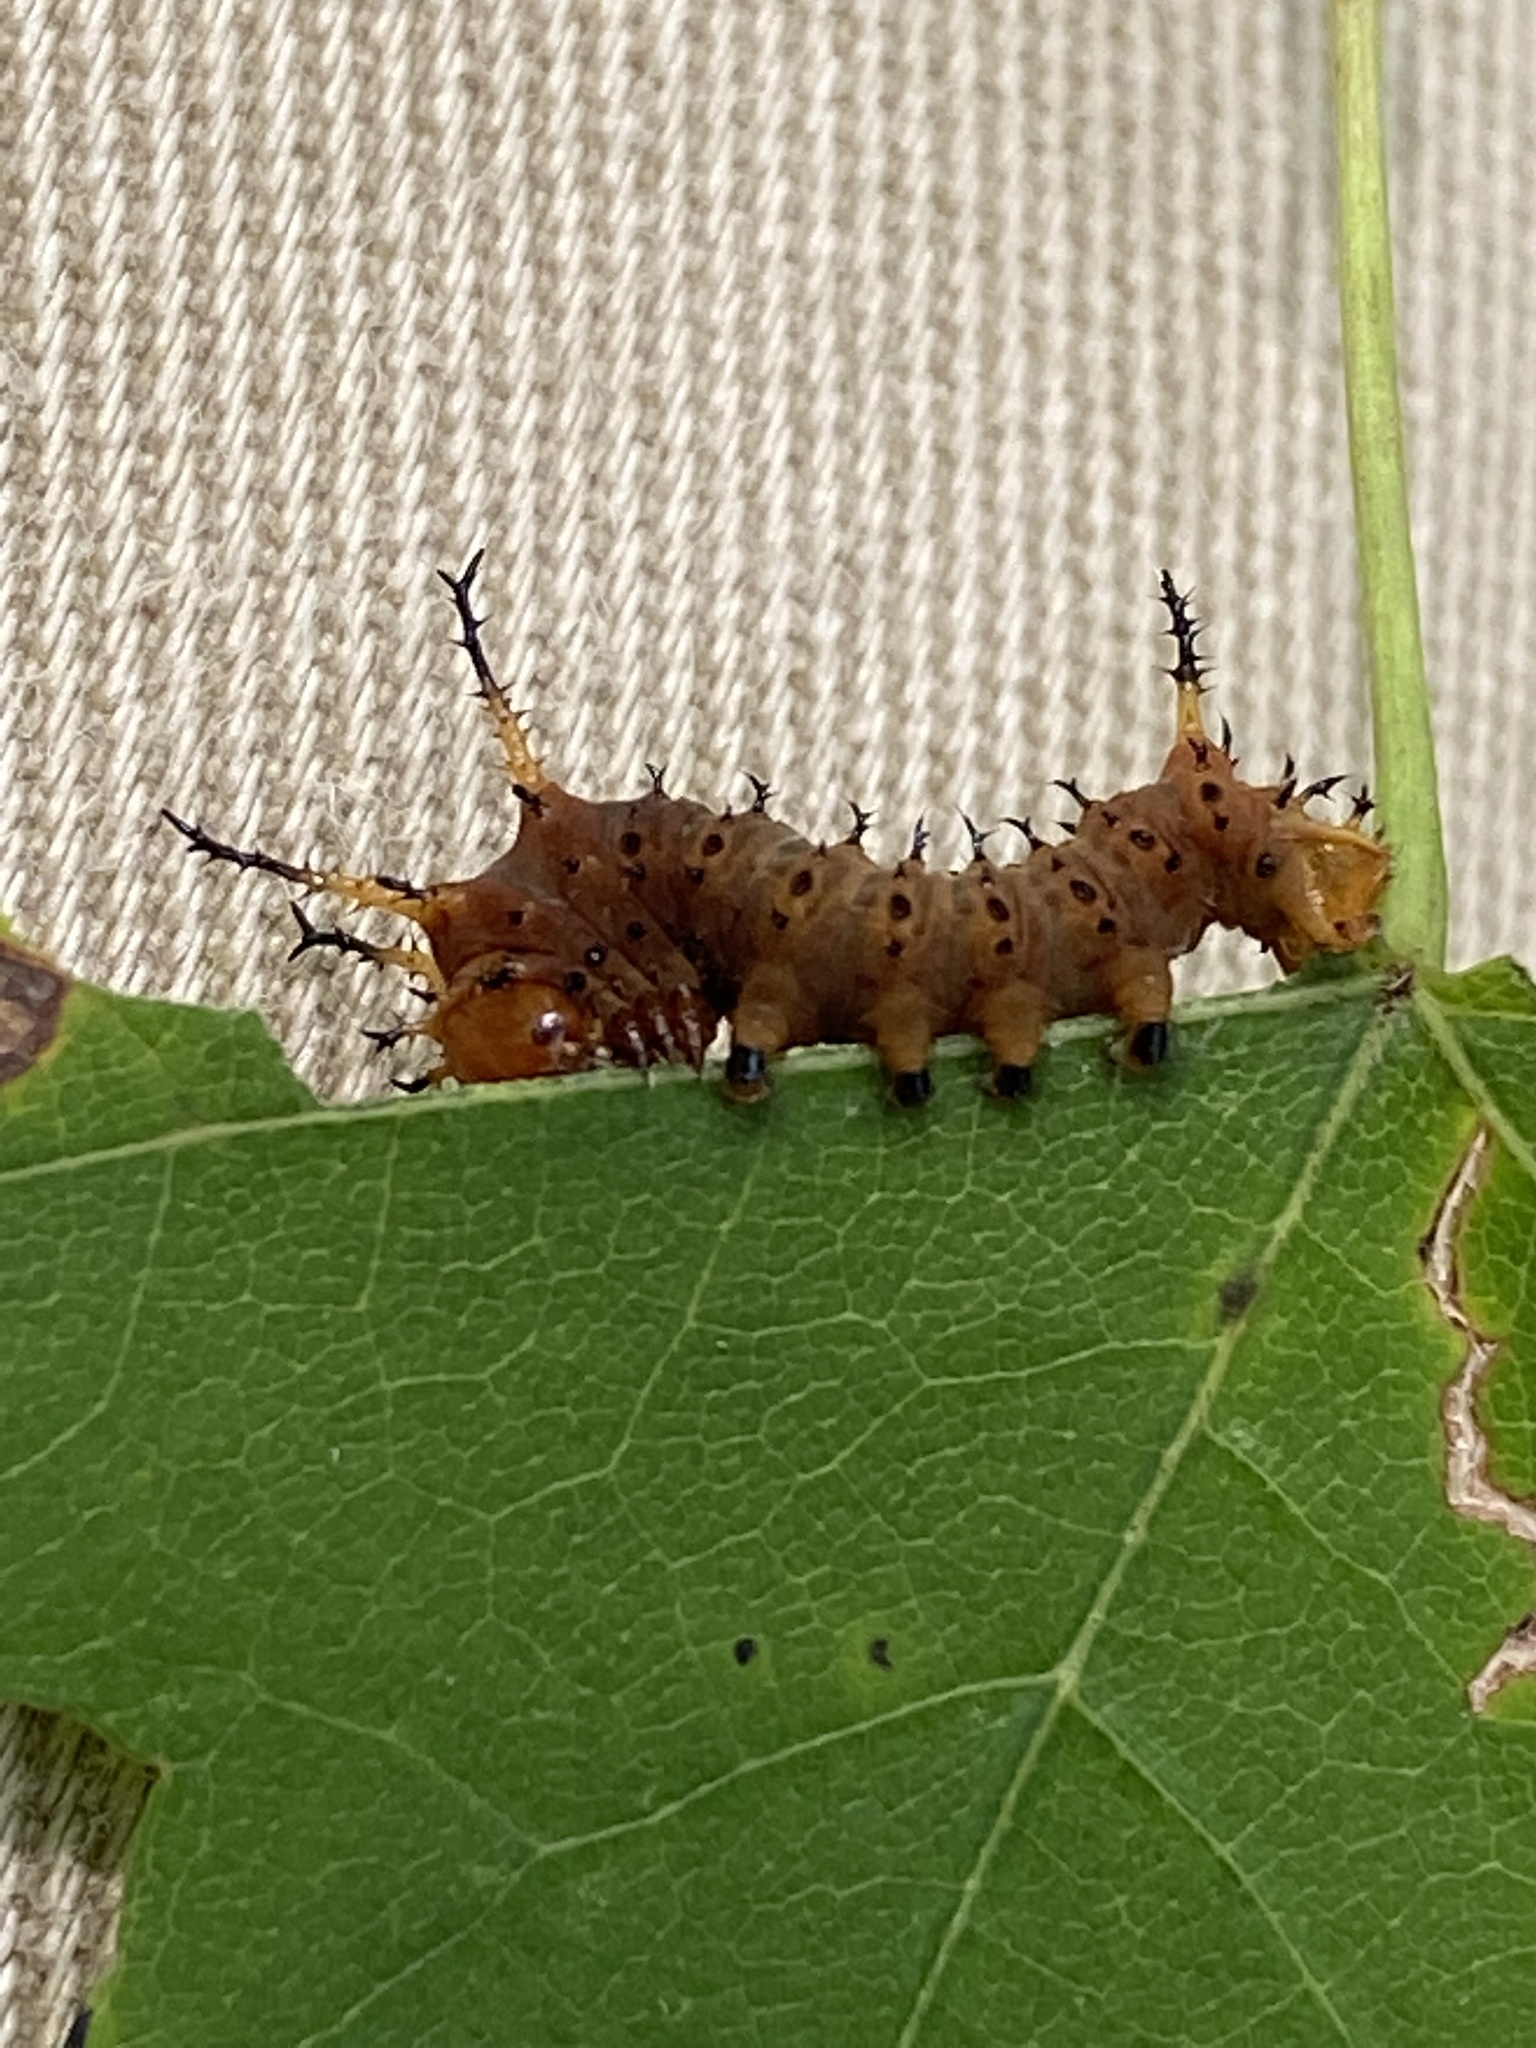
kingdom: Animalia
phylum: Arthropoda
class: Insecta
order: Lepidoptera
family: Saturniidae
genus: Eacles
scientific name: Eacles imperialis
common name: Imperial moth
